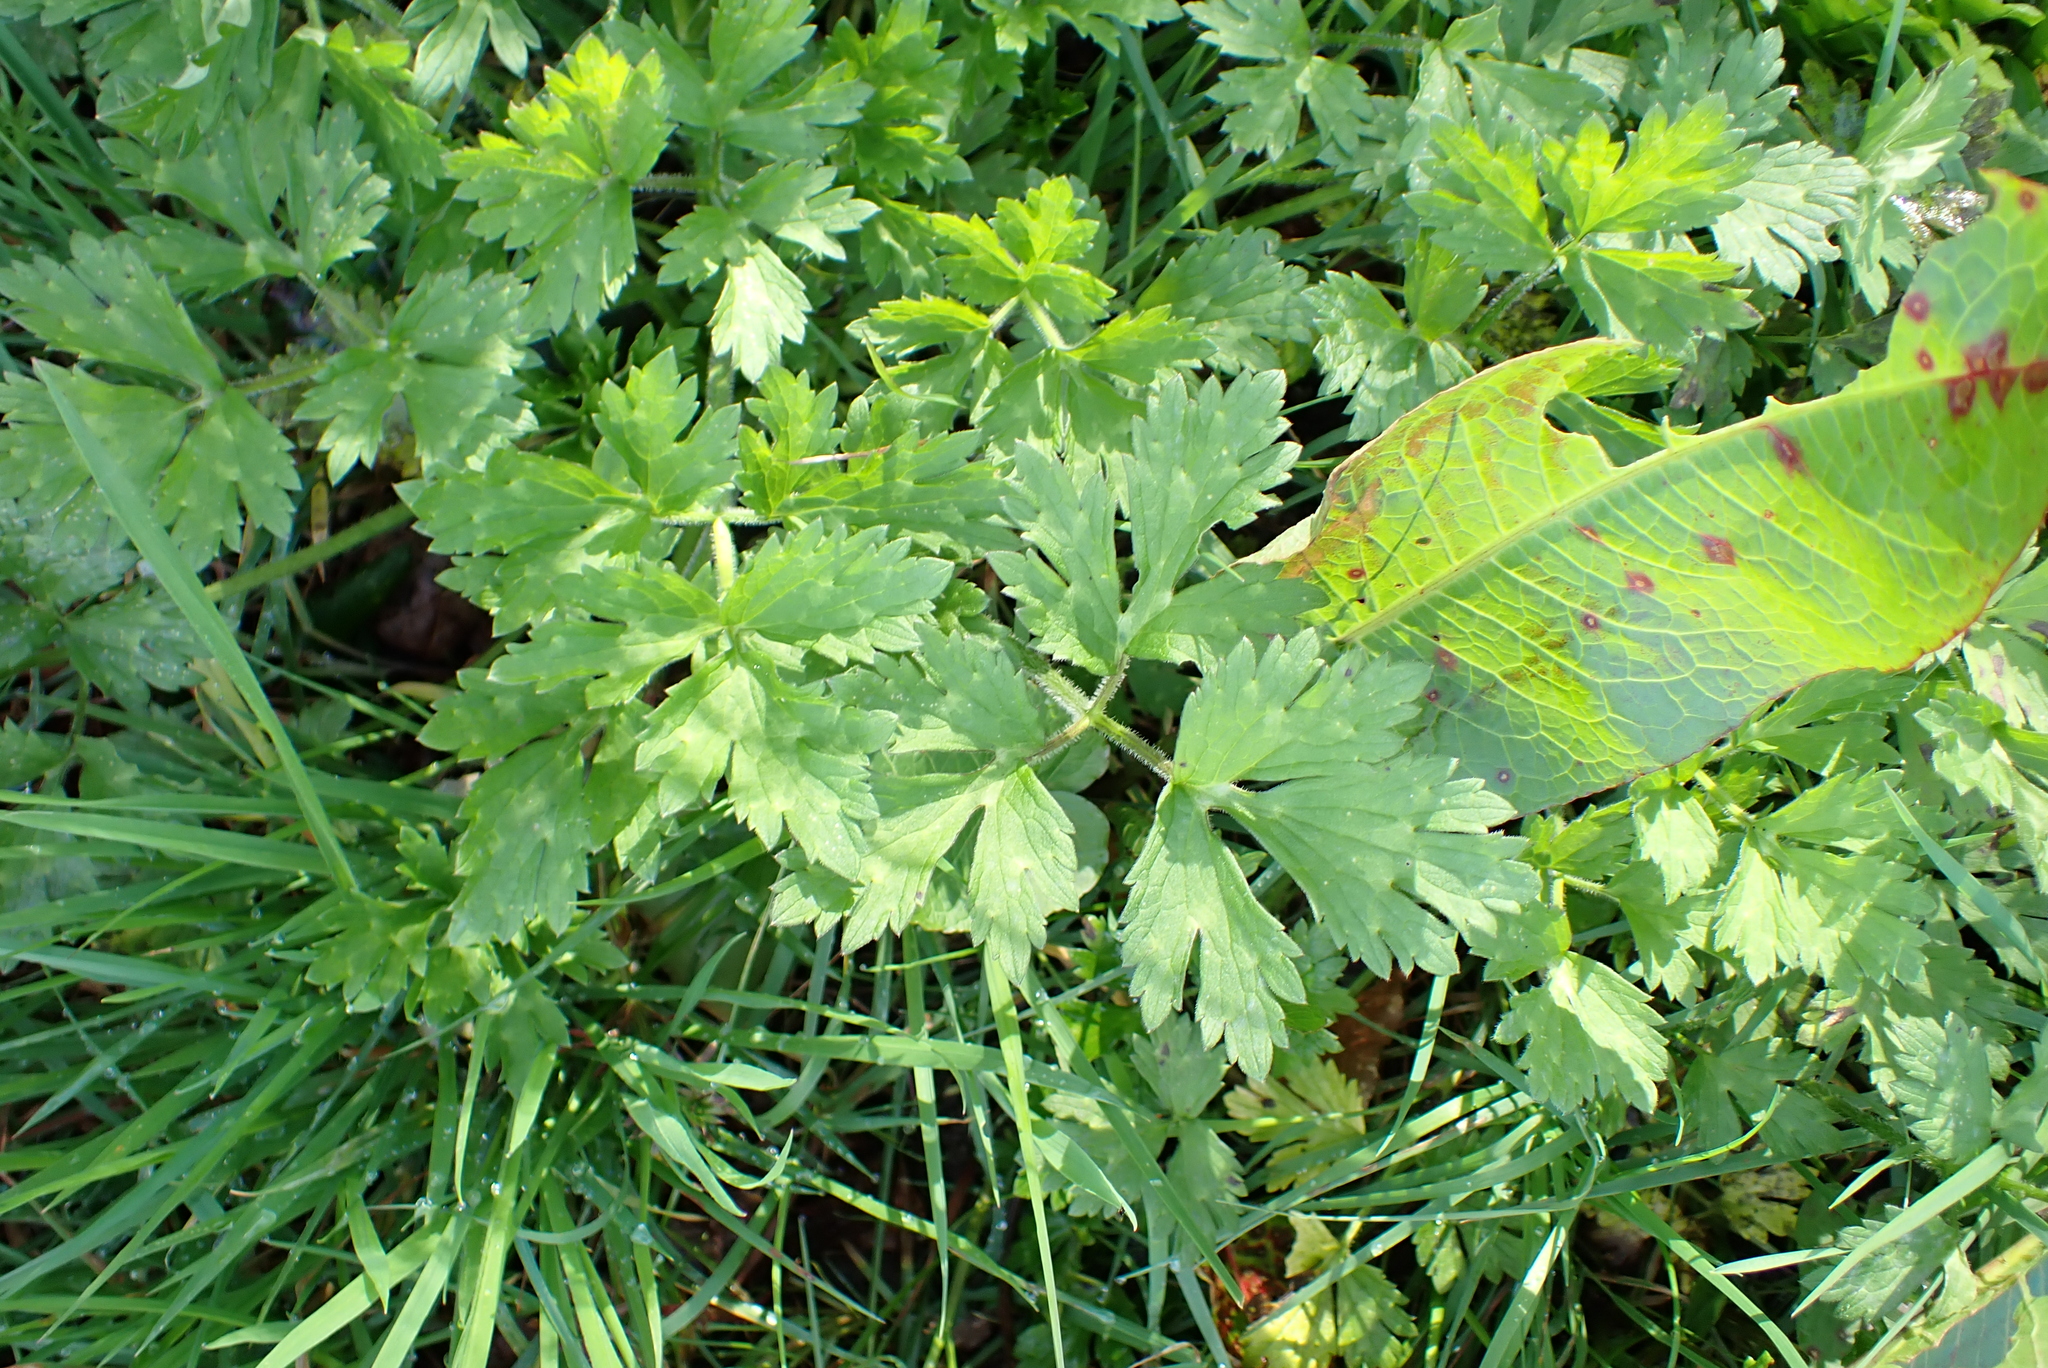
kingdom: Plantae
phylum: Tracheophyta
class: Magnoliopsida
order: Ranunculales
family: Ranunculaceae
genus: Ranunculus
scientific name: Ranunculus repens
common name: Creeping buttercup
